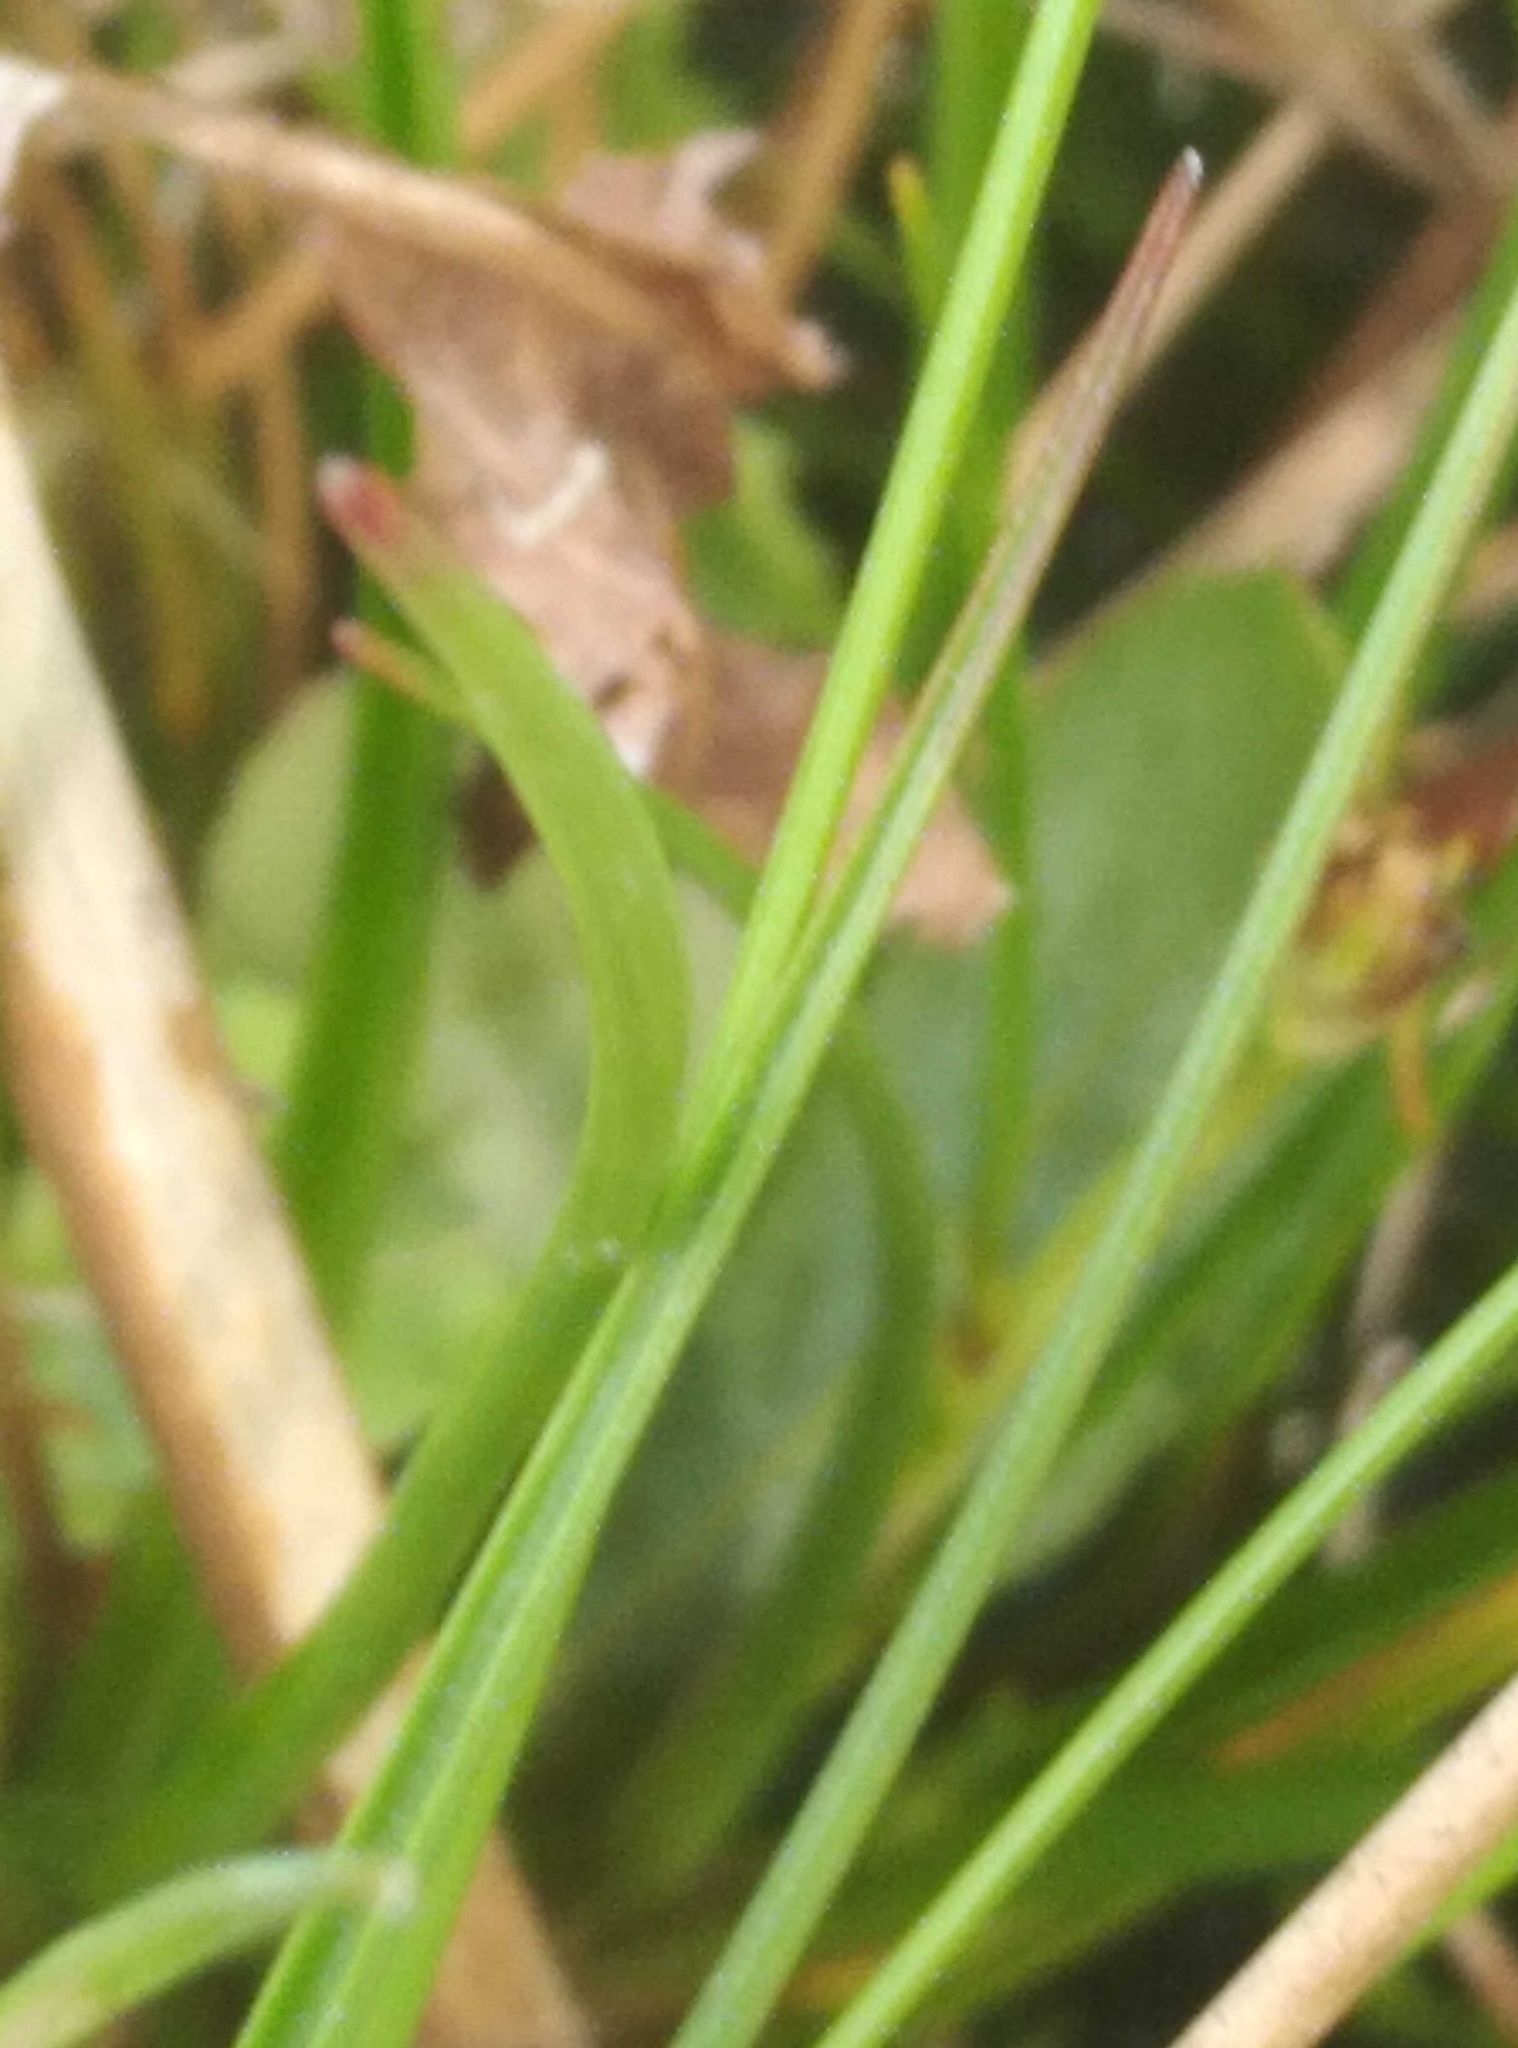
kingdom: Plantae
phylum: Tracheophyta
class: Liliopsida
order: Poales
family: Juncaceae
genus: Juncus
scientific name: Juncus caespiticius
